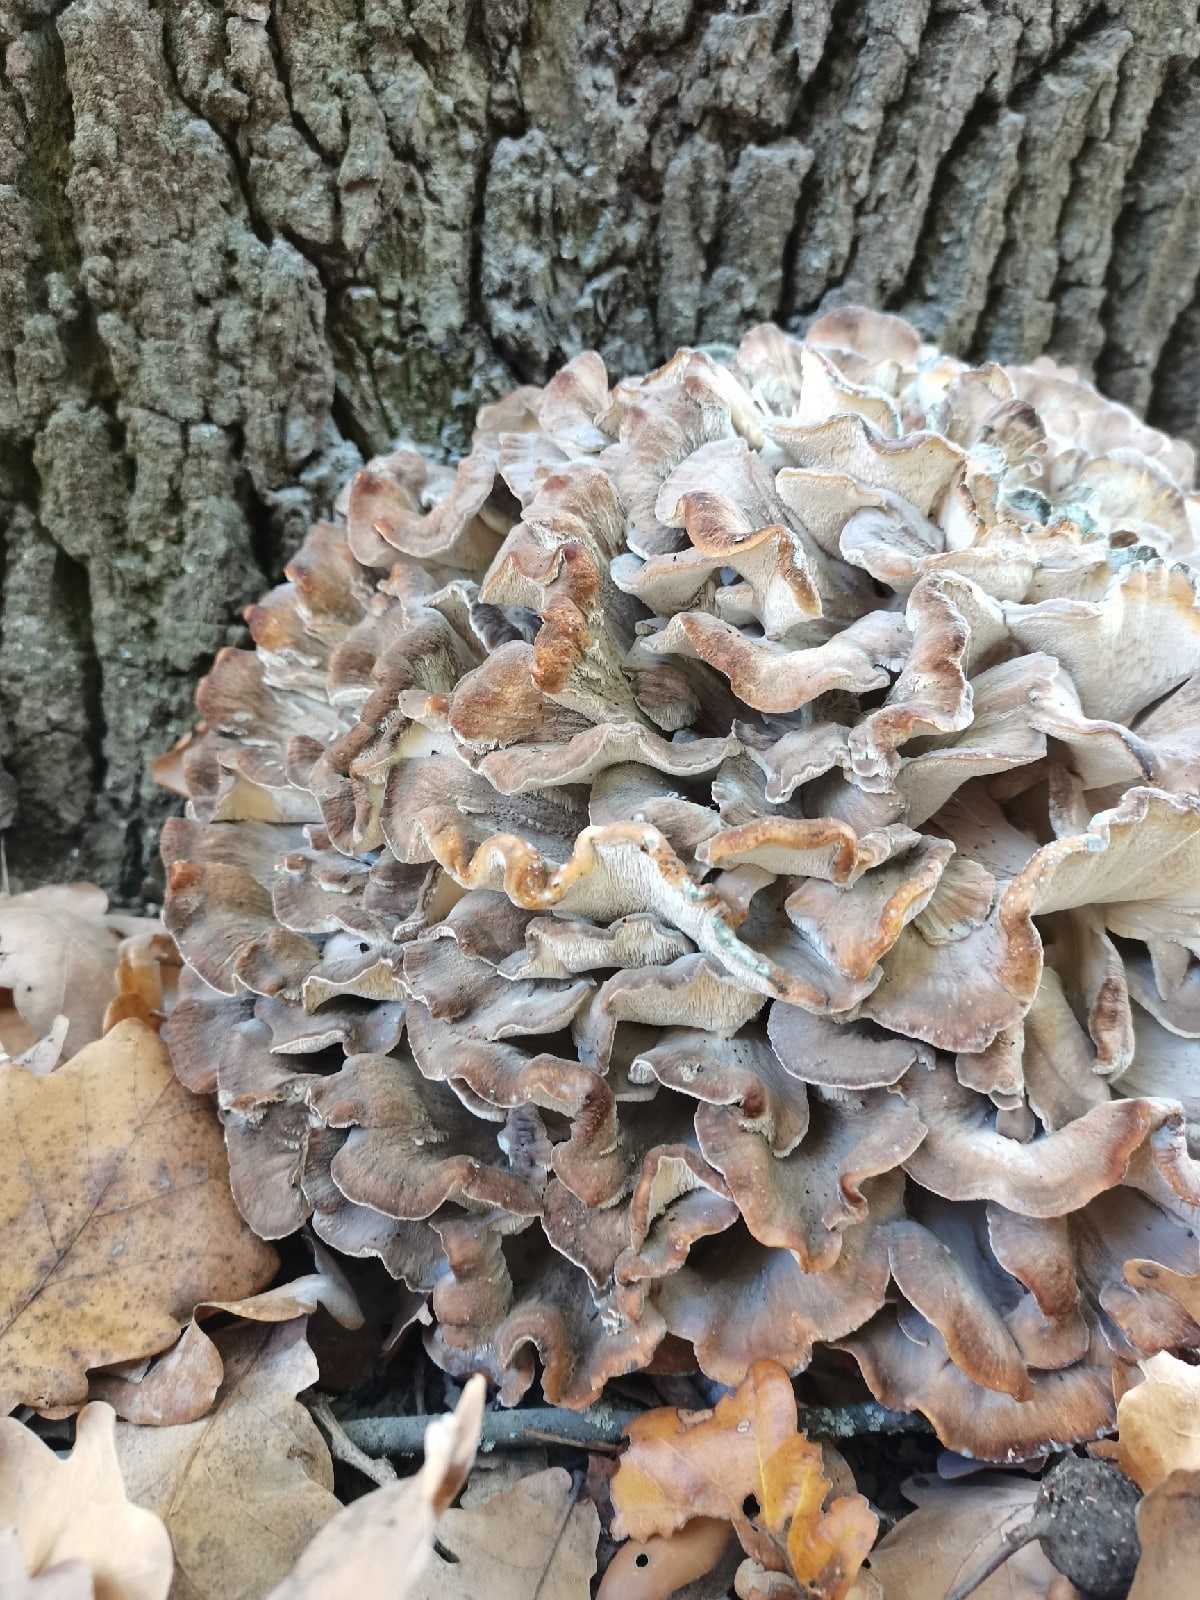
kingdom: Fungi
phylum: Basidiomycota
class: Agaricomycetes
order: Polyporales
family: Grifolaceae
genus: Grifola
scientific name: Grifola frondosa
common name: Hen of the woods
